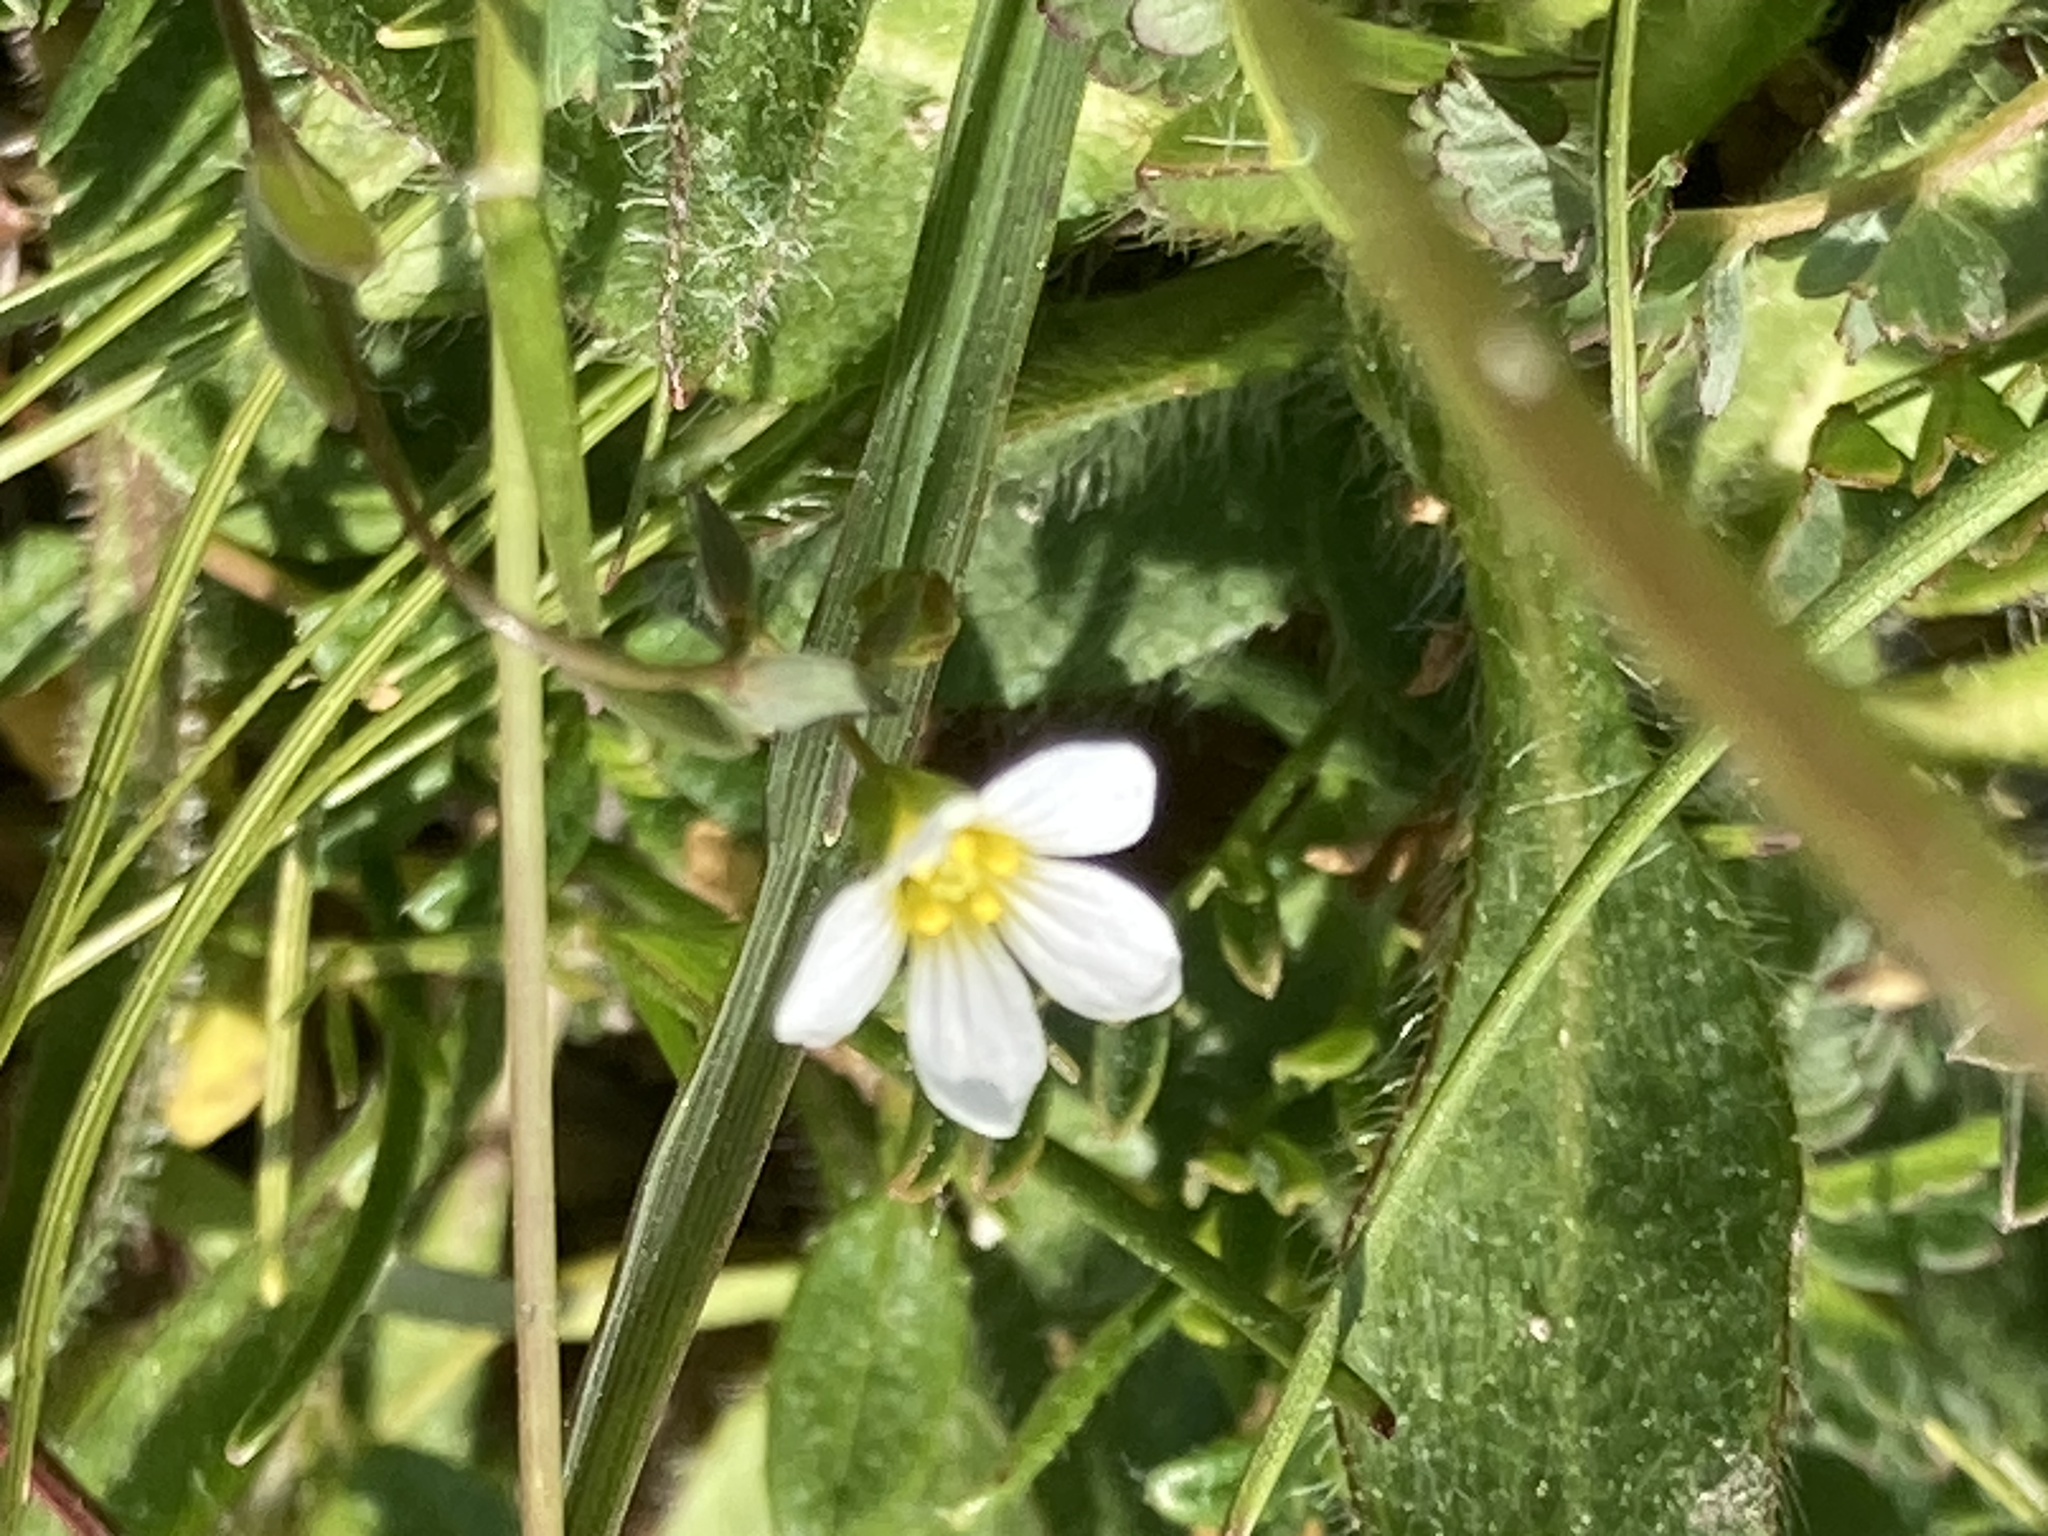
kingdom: Plantae
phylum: Tracheophyta
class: Magnoliopsida
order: Malpighiales
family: Linaceae
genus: Linum
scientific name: Linum catharticum
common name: Fairy flax
